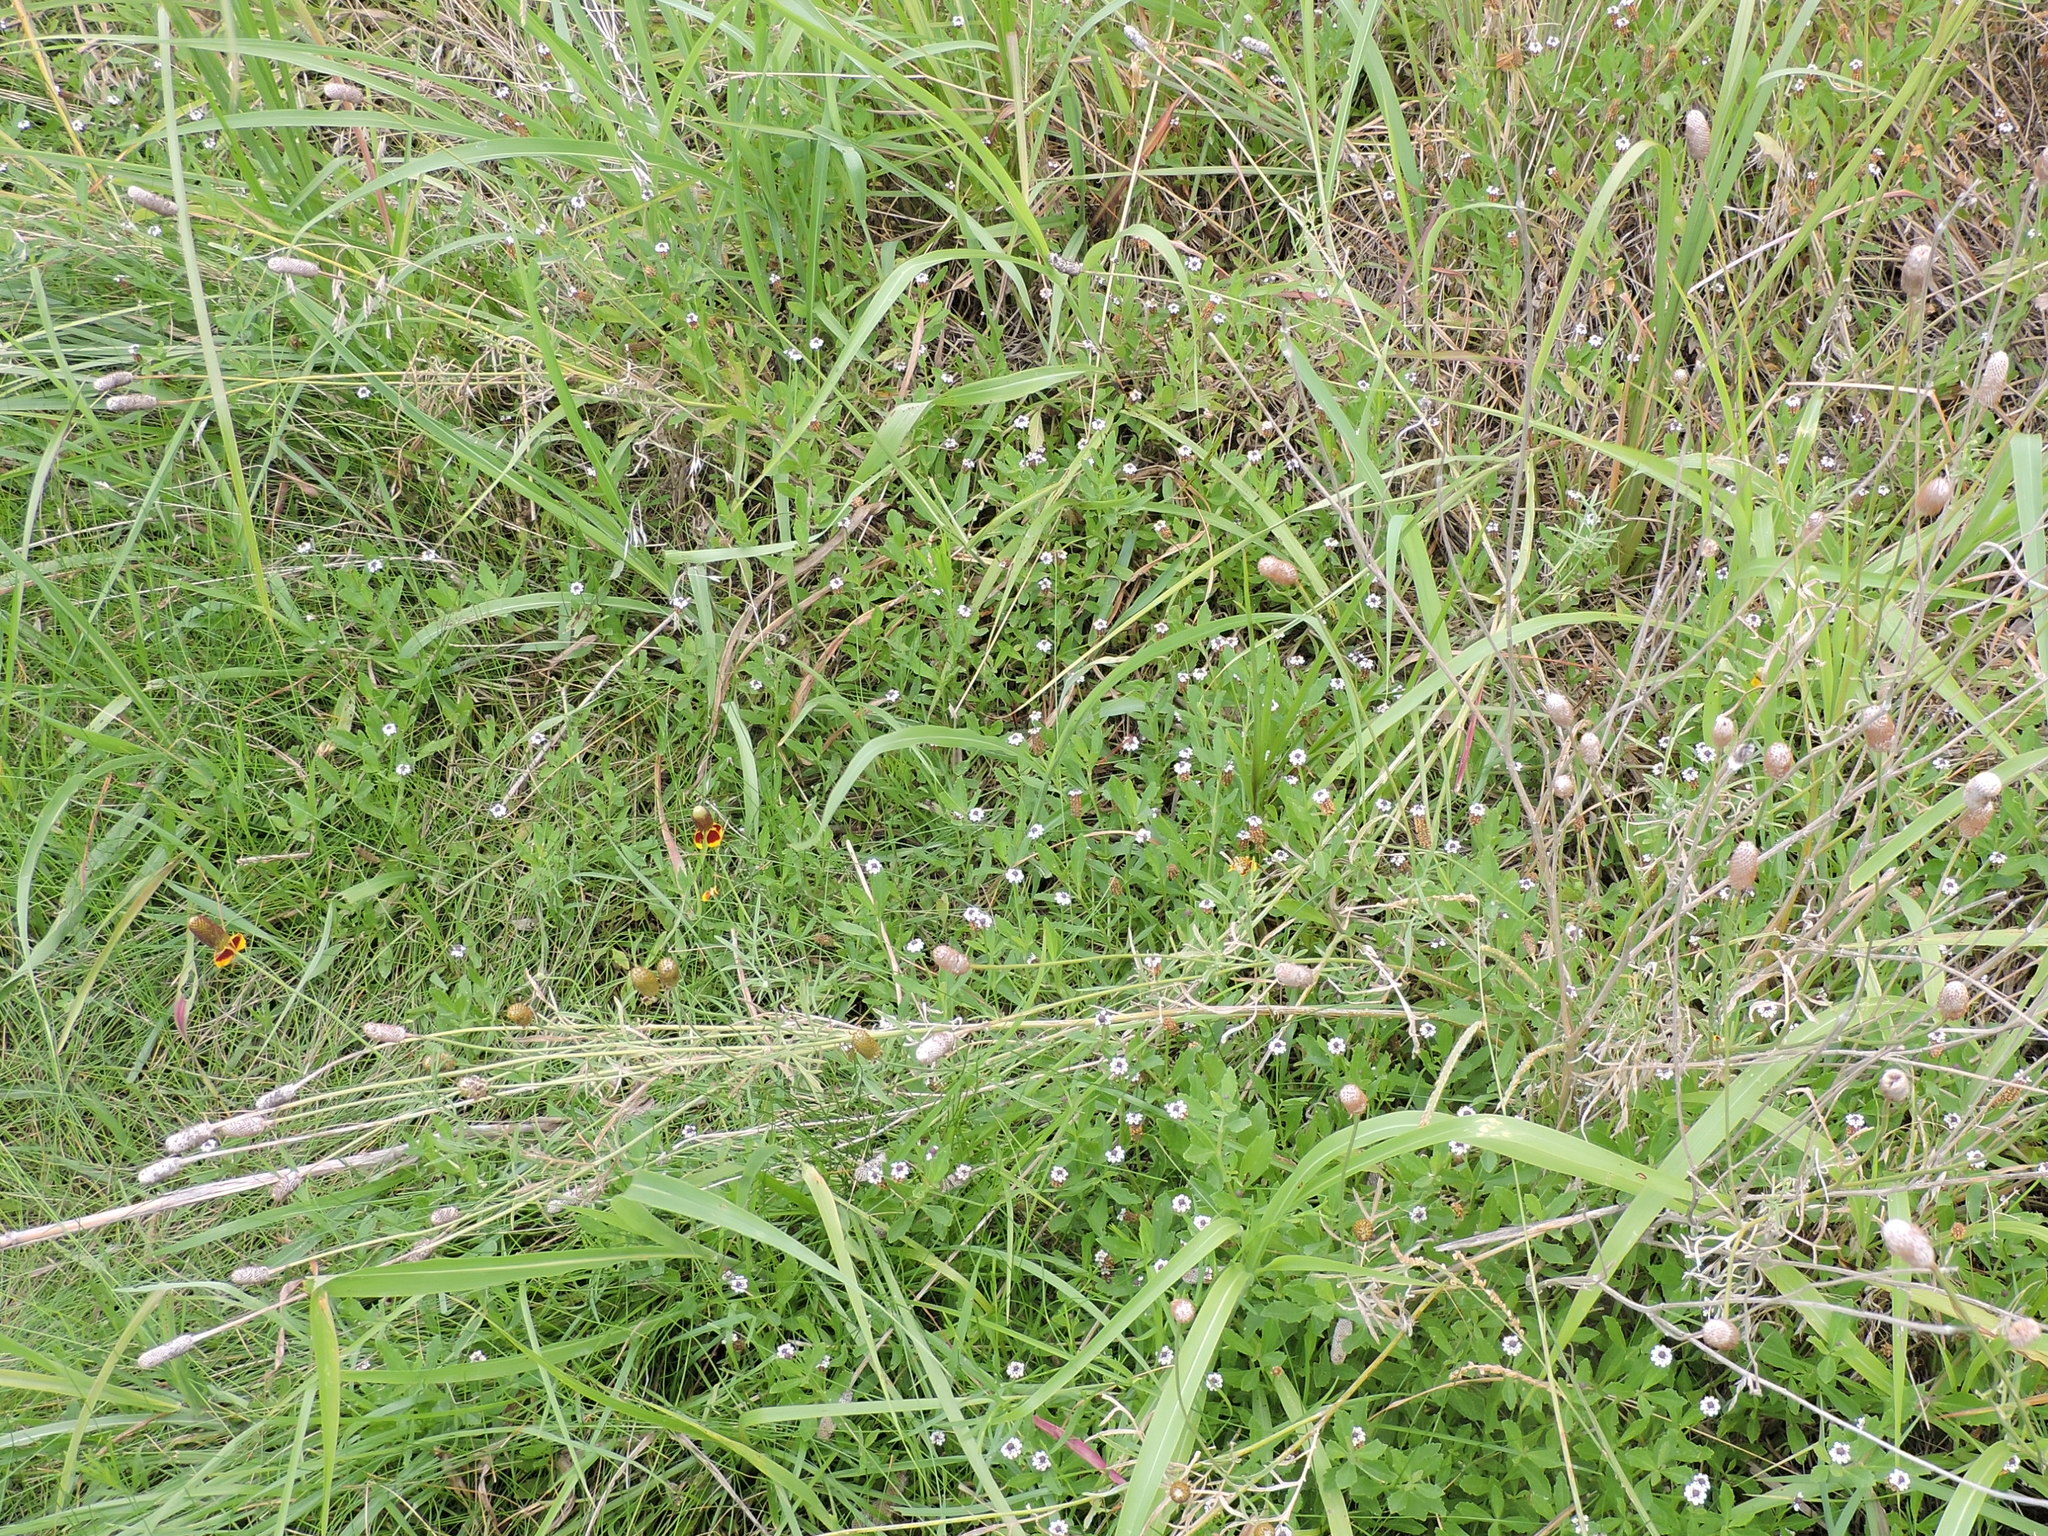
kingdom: Plantae
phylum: Tracheophyta
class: Magnoliopsida
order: Asterales
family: Asteraceae
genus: Ratibida
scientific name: Ratibida columnifera
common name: Prairie coneflower
